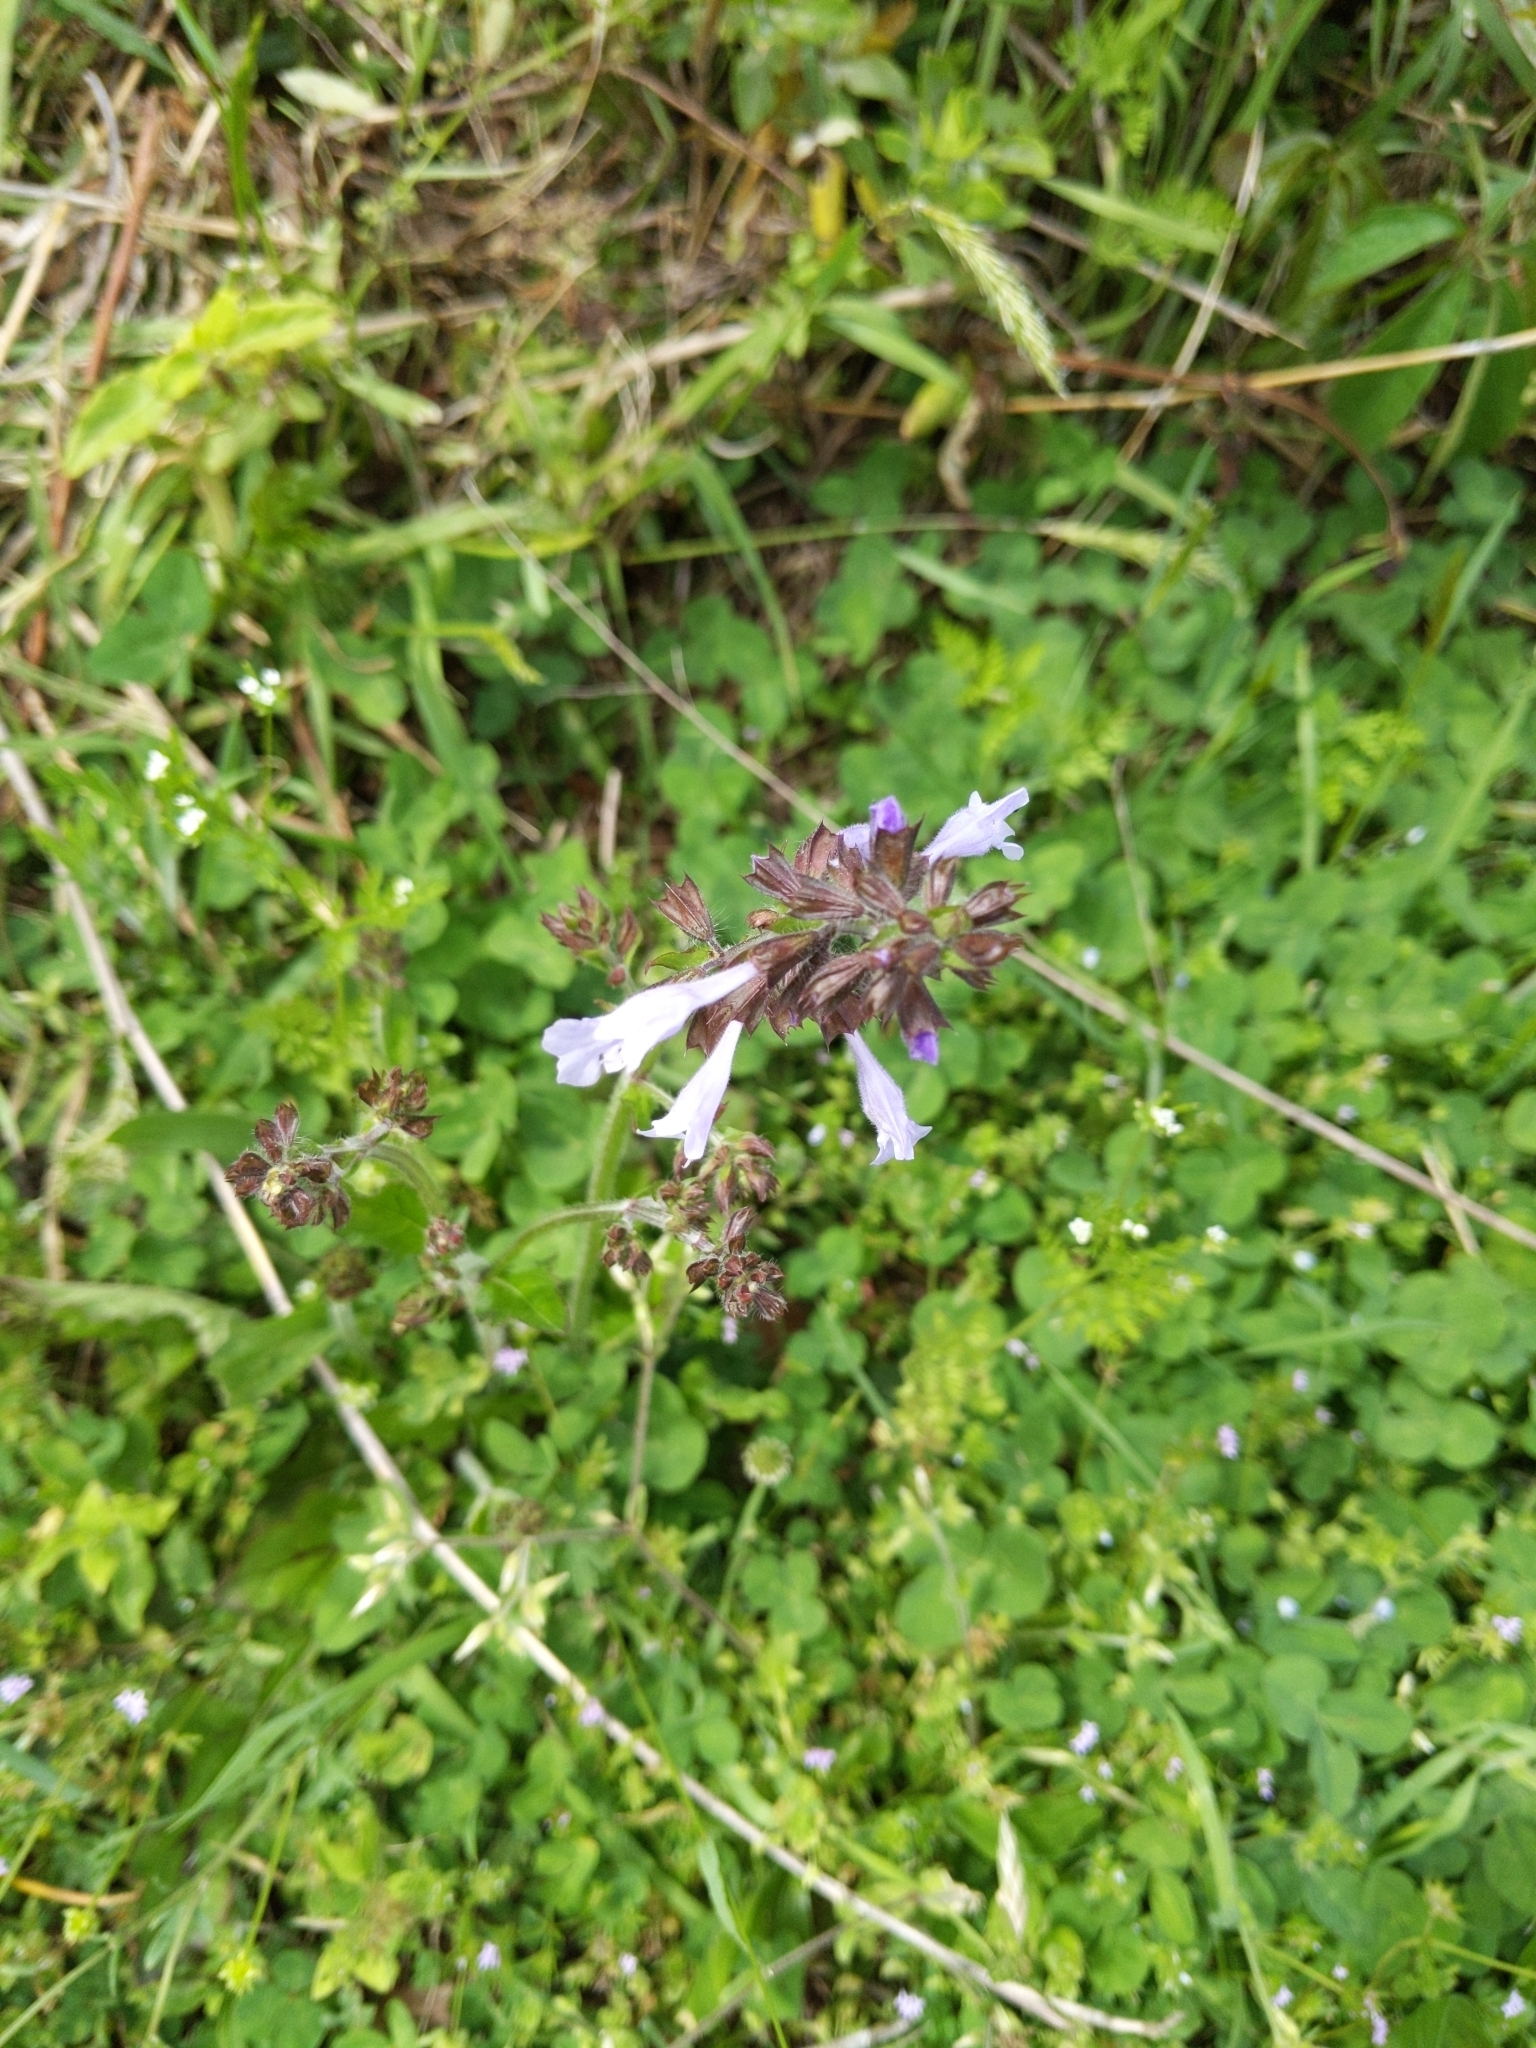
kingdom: Plantae
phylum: Tracheophyta
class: Magnoliopsida
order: Lamiales
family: Lamiaceae
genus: Salvia
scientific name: Salvia lyrata
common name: Cancerweed
